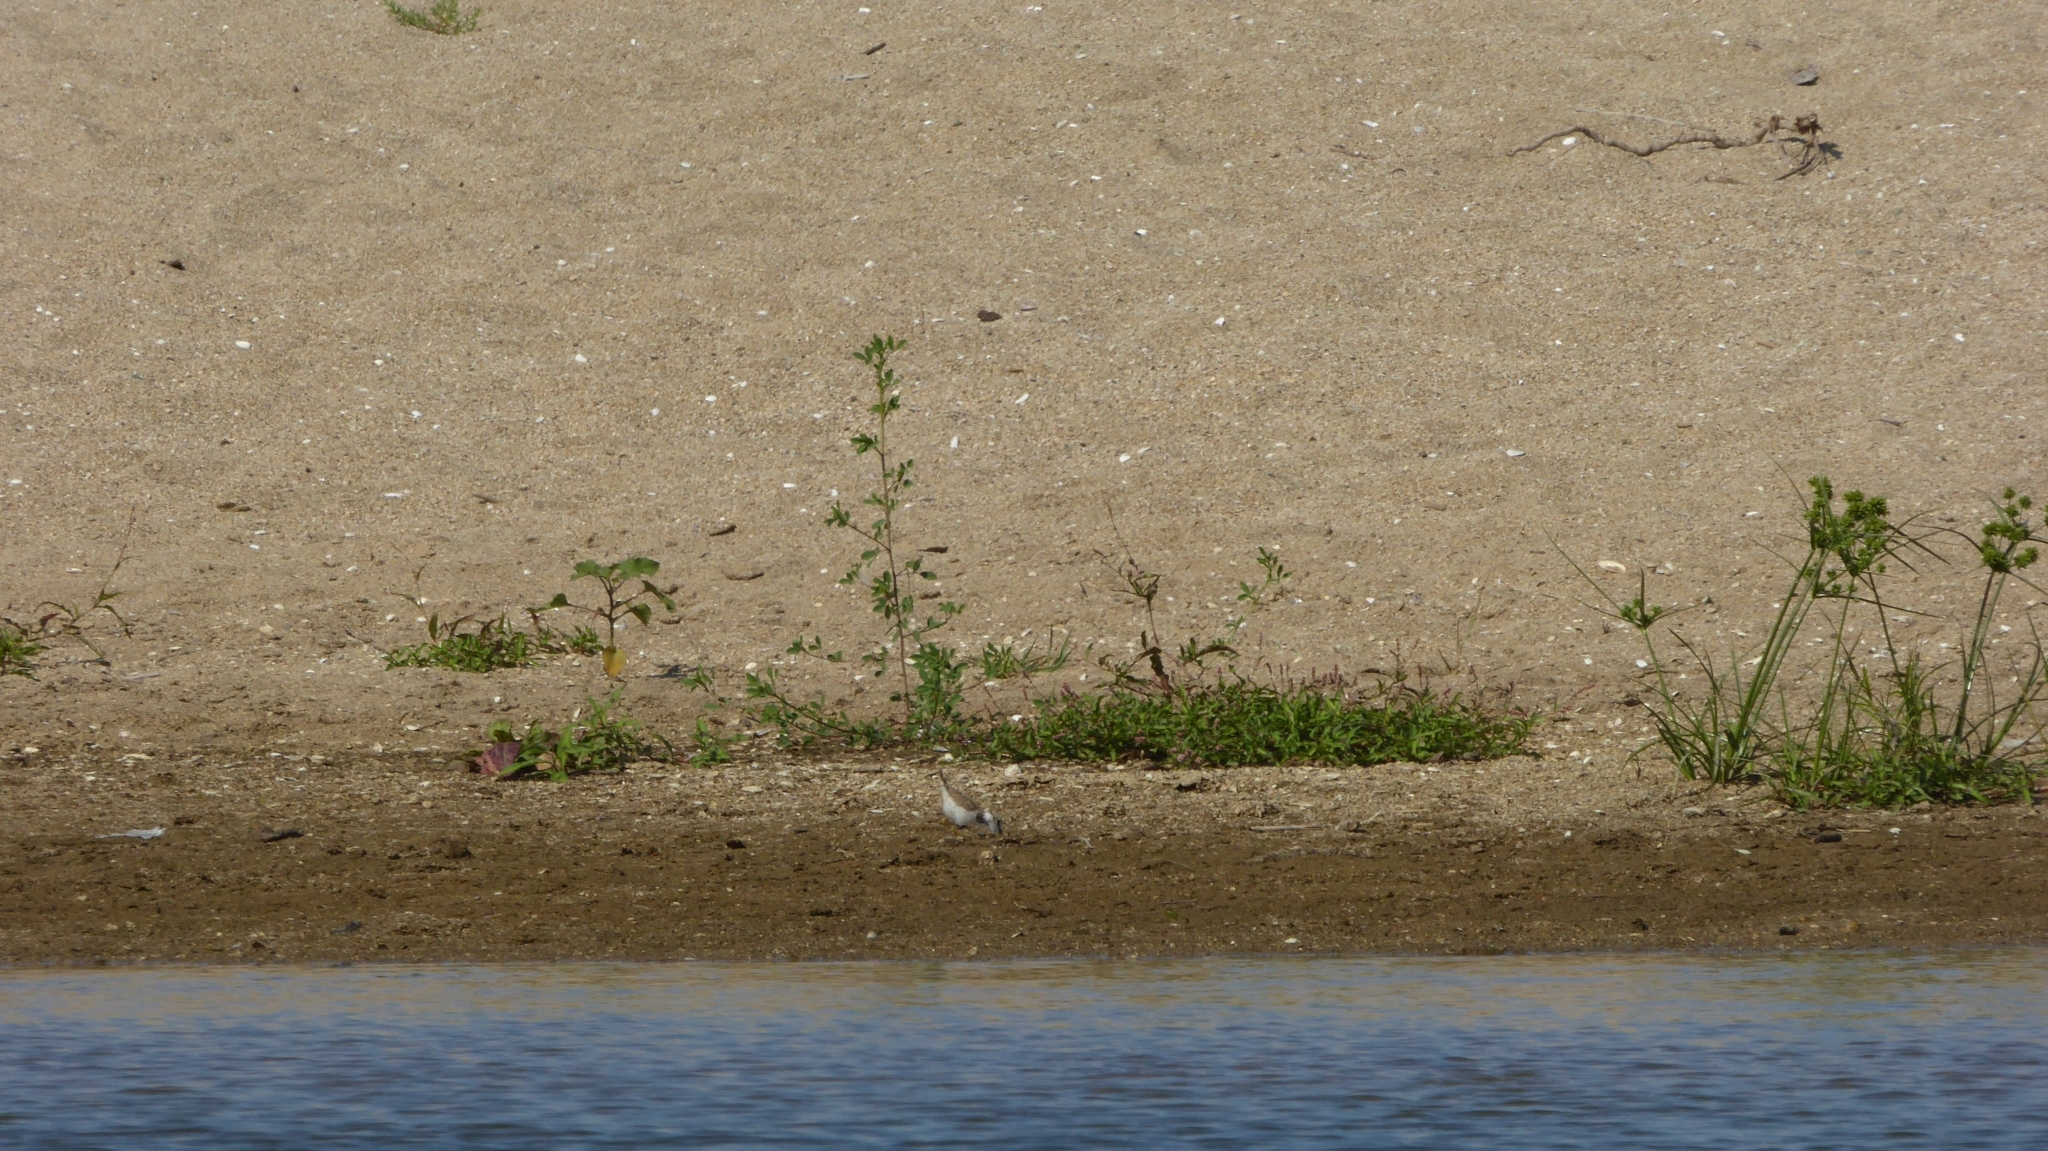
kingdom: Animalia
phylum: Chordata
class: Aves
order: Charadriiformes
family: Charadriidae
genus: Charadrius
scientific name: Charadrius dubius
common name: Little ringed plover
